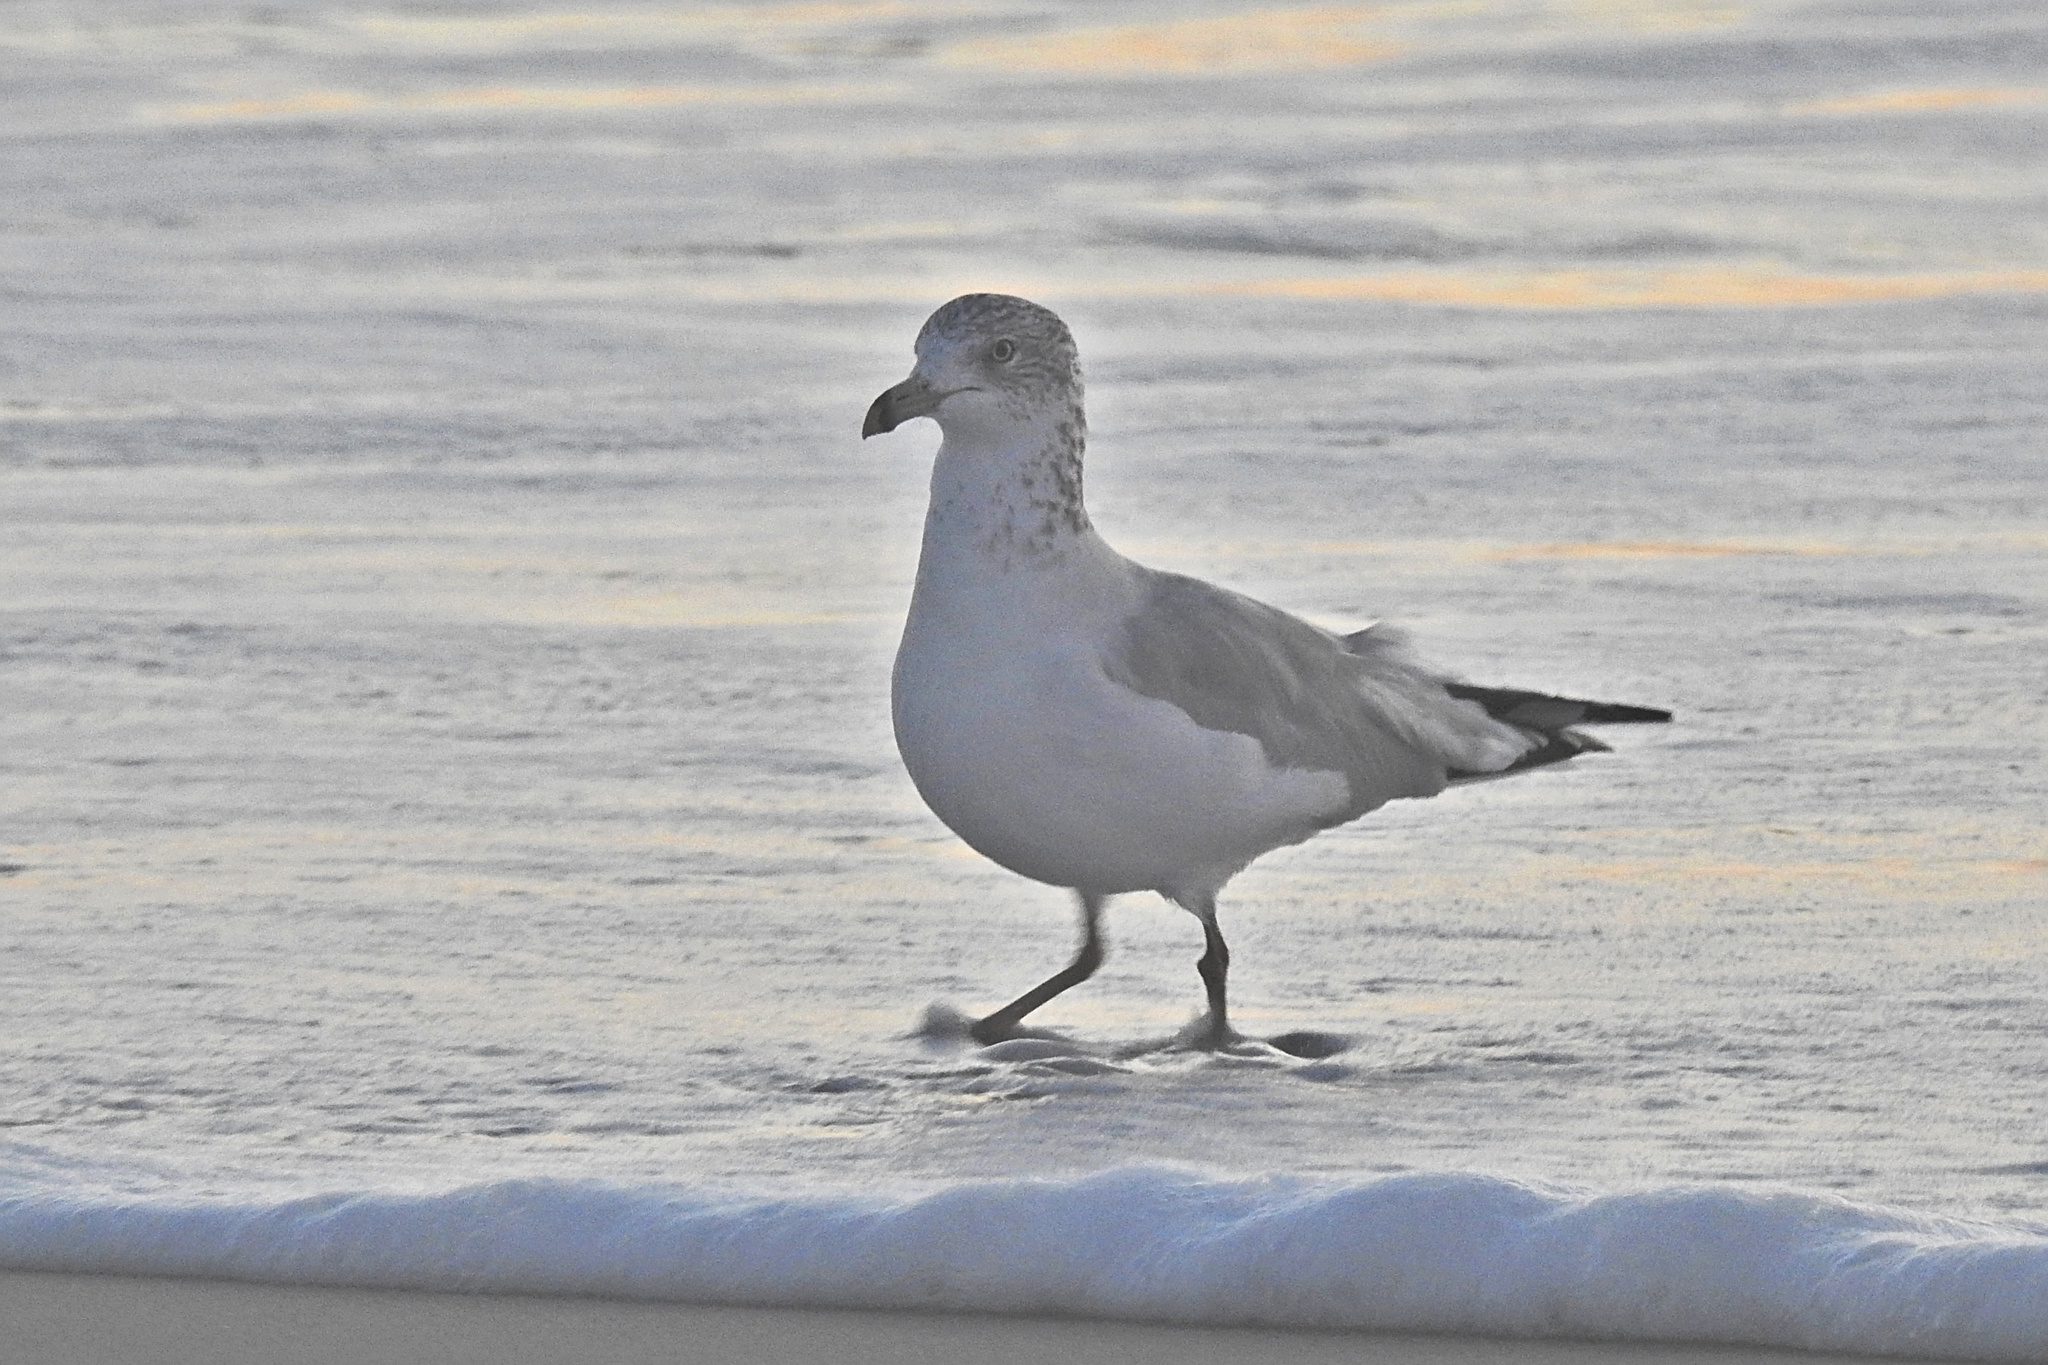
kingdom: Animalia
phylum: Chordata
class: Aves
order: Charadriiformes
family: Laridae
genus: Larus
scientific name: Larus delawarensis
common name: Ring-billed gull
